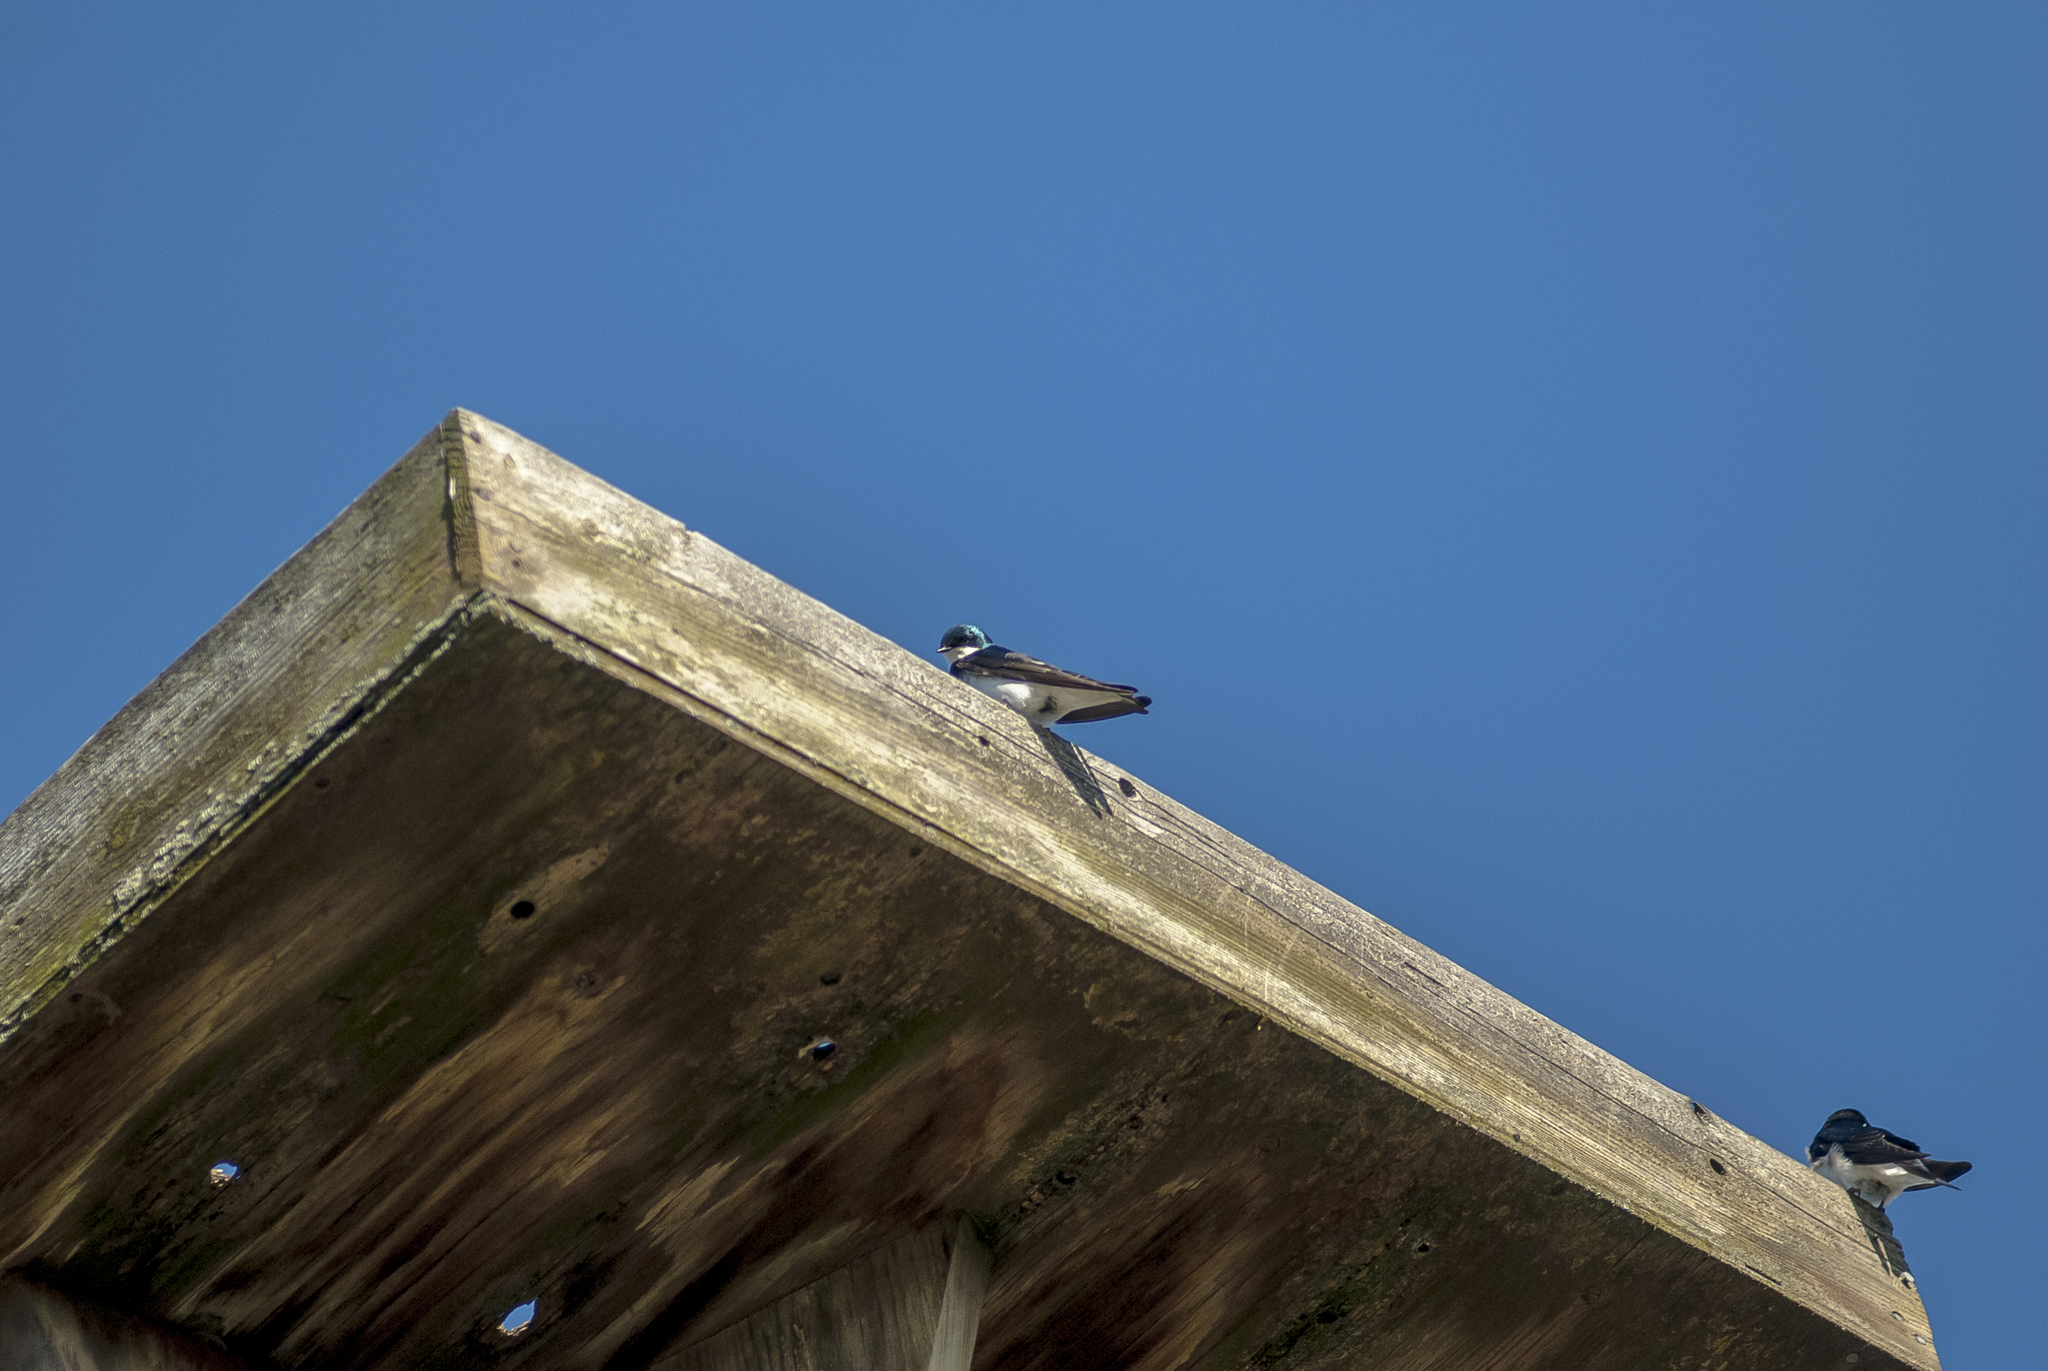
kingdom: Animalia
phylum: Chordata
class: Aves
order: Passeriformes
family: Hirundinidae
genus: Tachycineta
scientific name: Tachycineta bicolor
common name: Tree swallow
